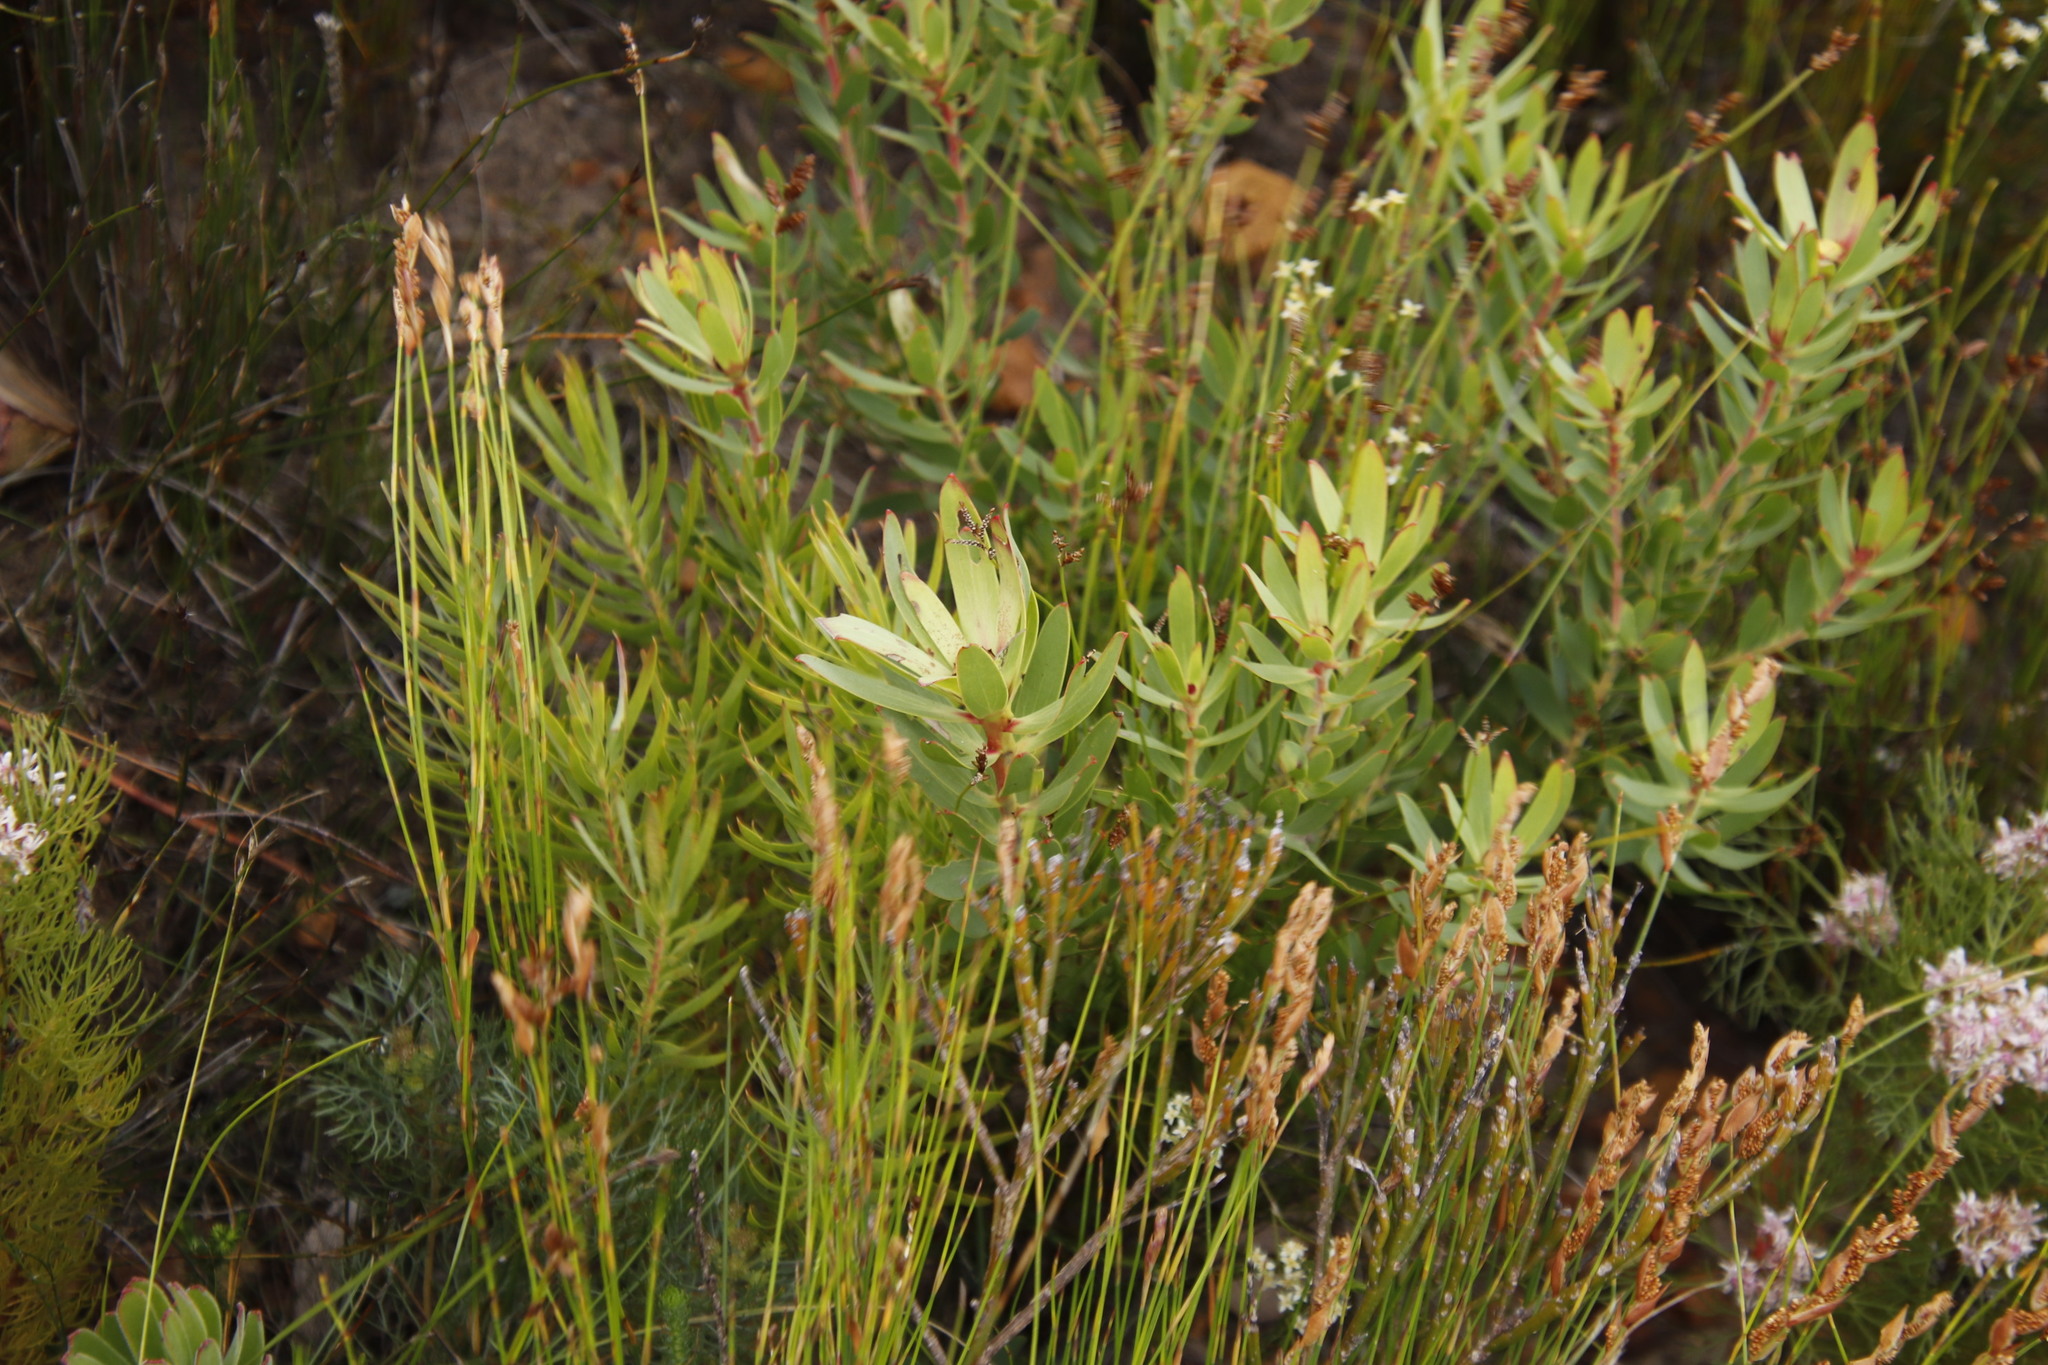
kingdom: Plantae
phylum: Tracheophyta
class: Magnoliopsida
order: Proteales
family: Proteaceae
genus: Leucadendron
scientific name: Leucadendron sessile
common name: Western sunbush
